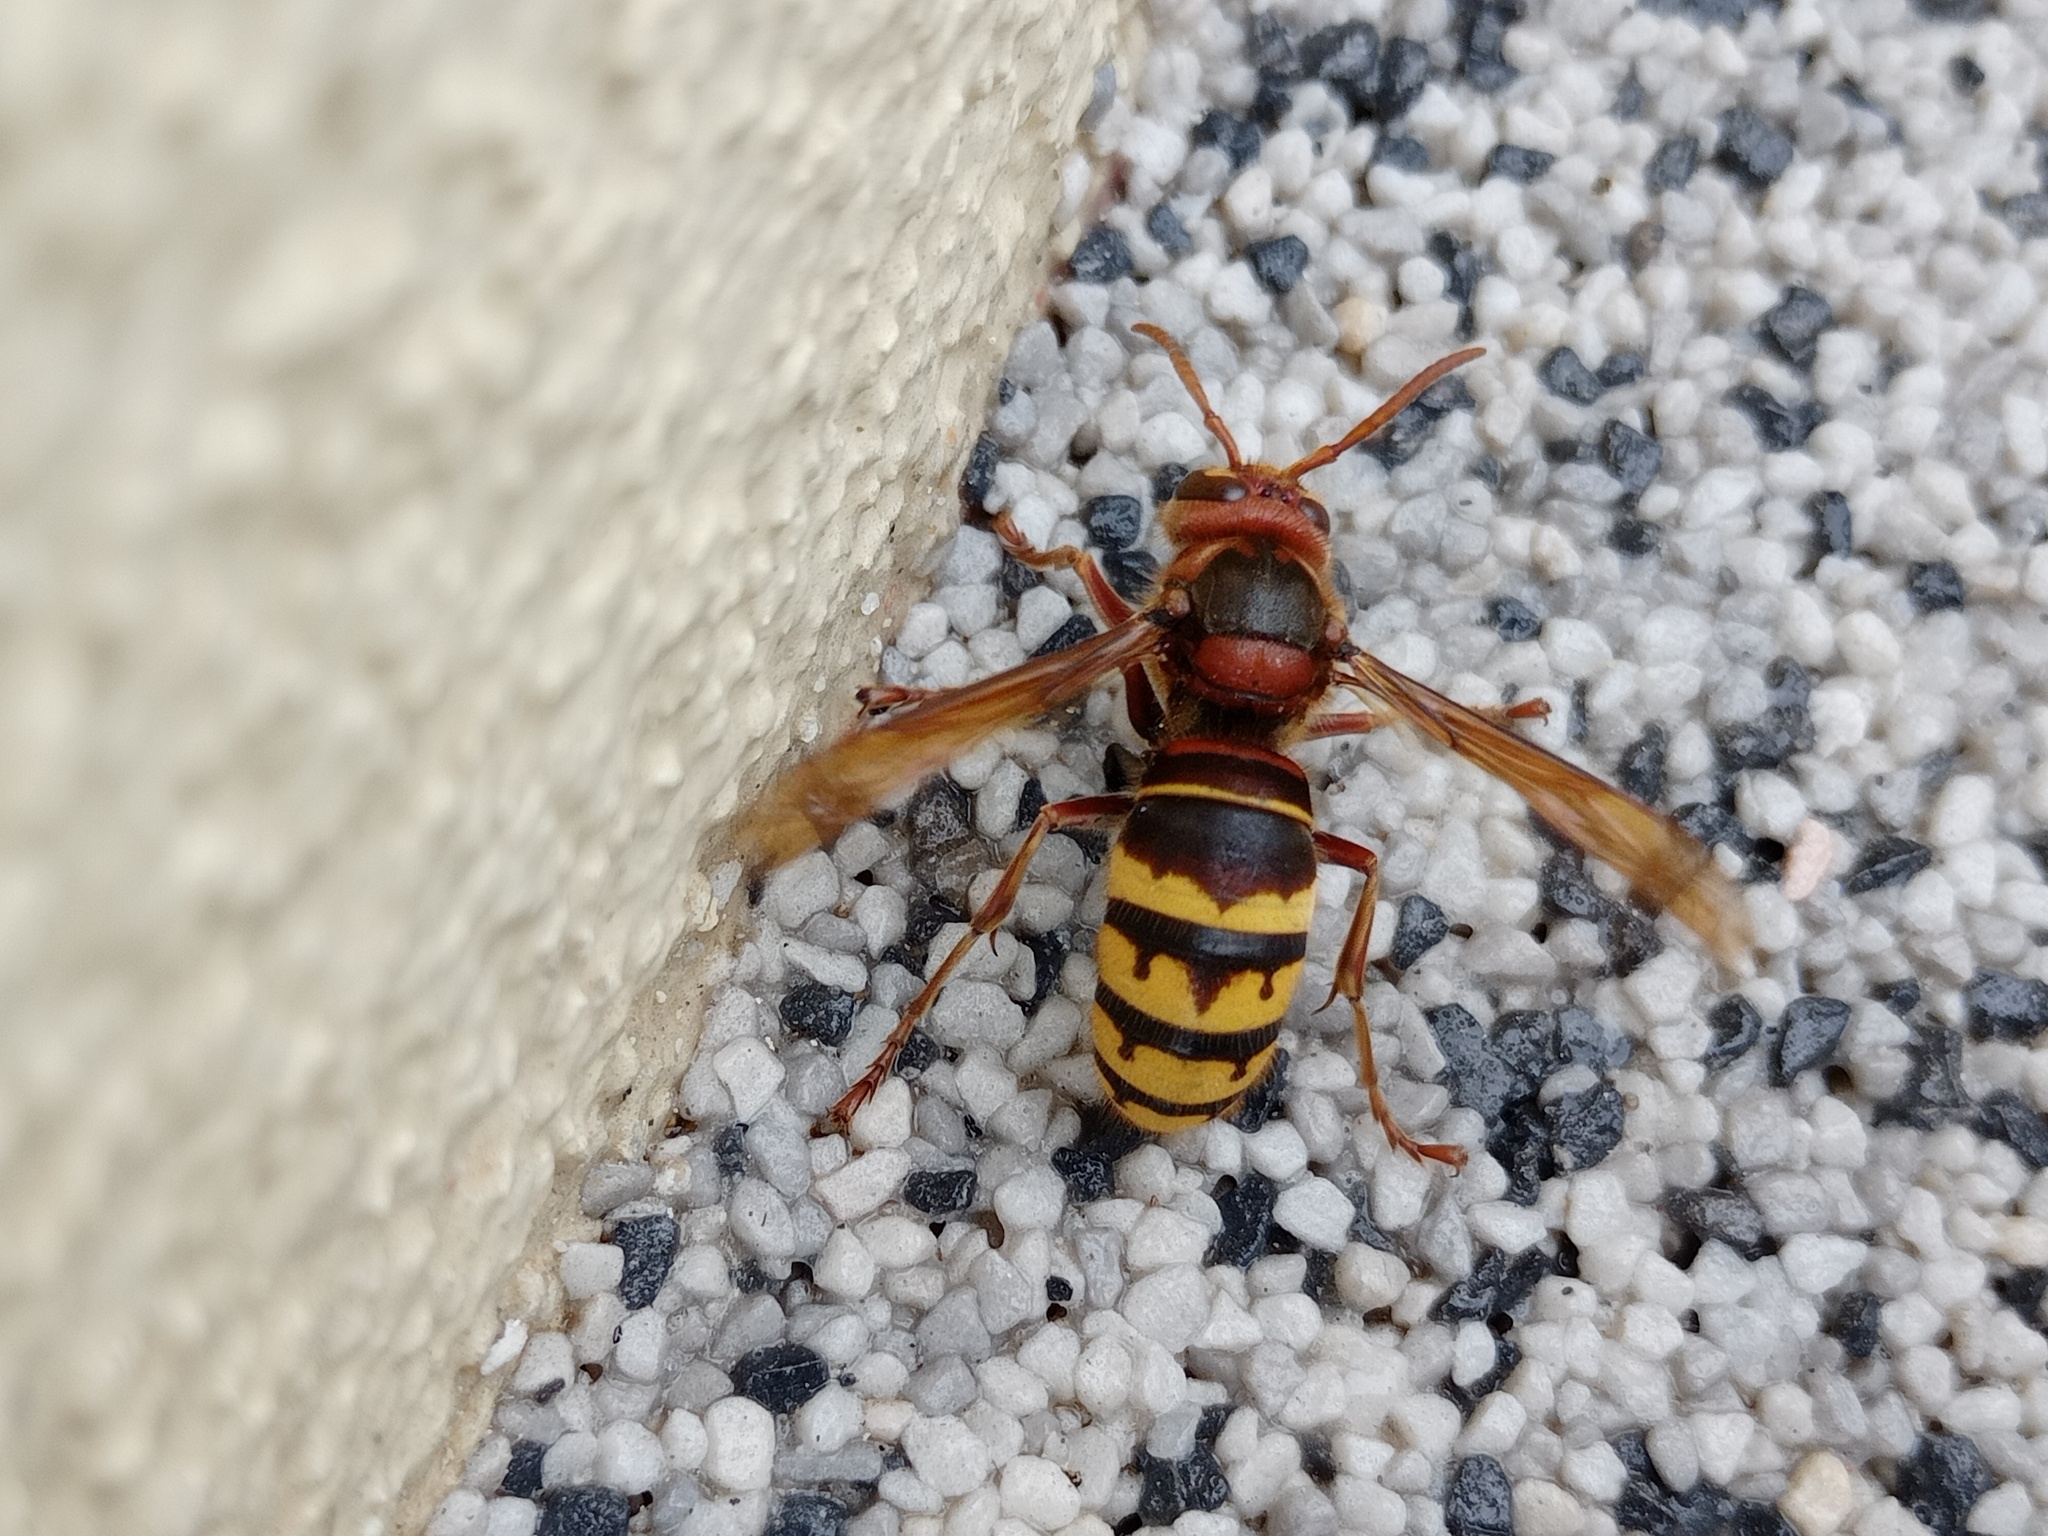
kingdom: Animalia
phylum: Arthropoda
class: Insecta
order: Hymenoptera
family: Vespidae
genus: Vespa
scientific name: Vespa crabro
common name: Hornet
